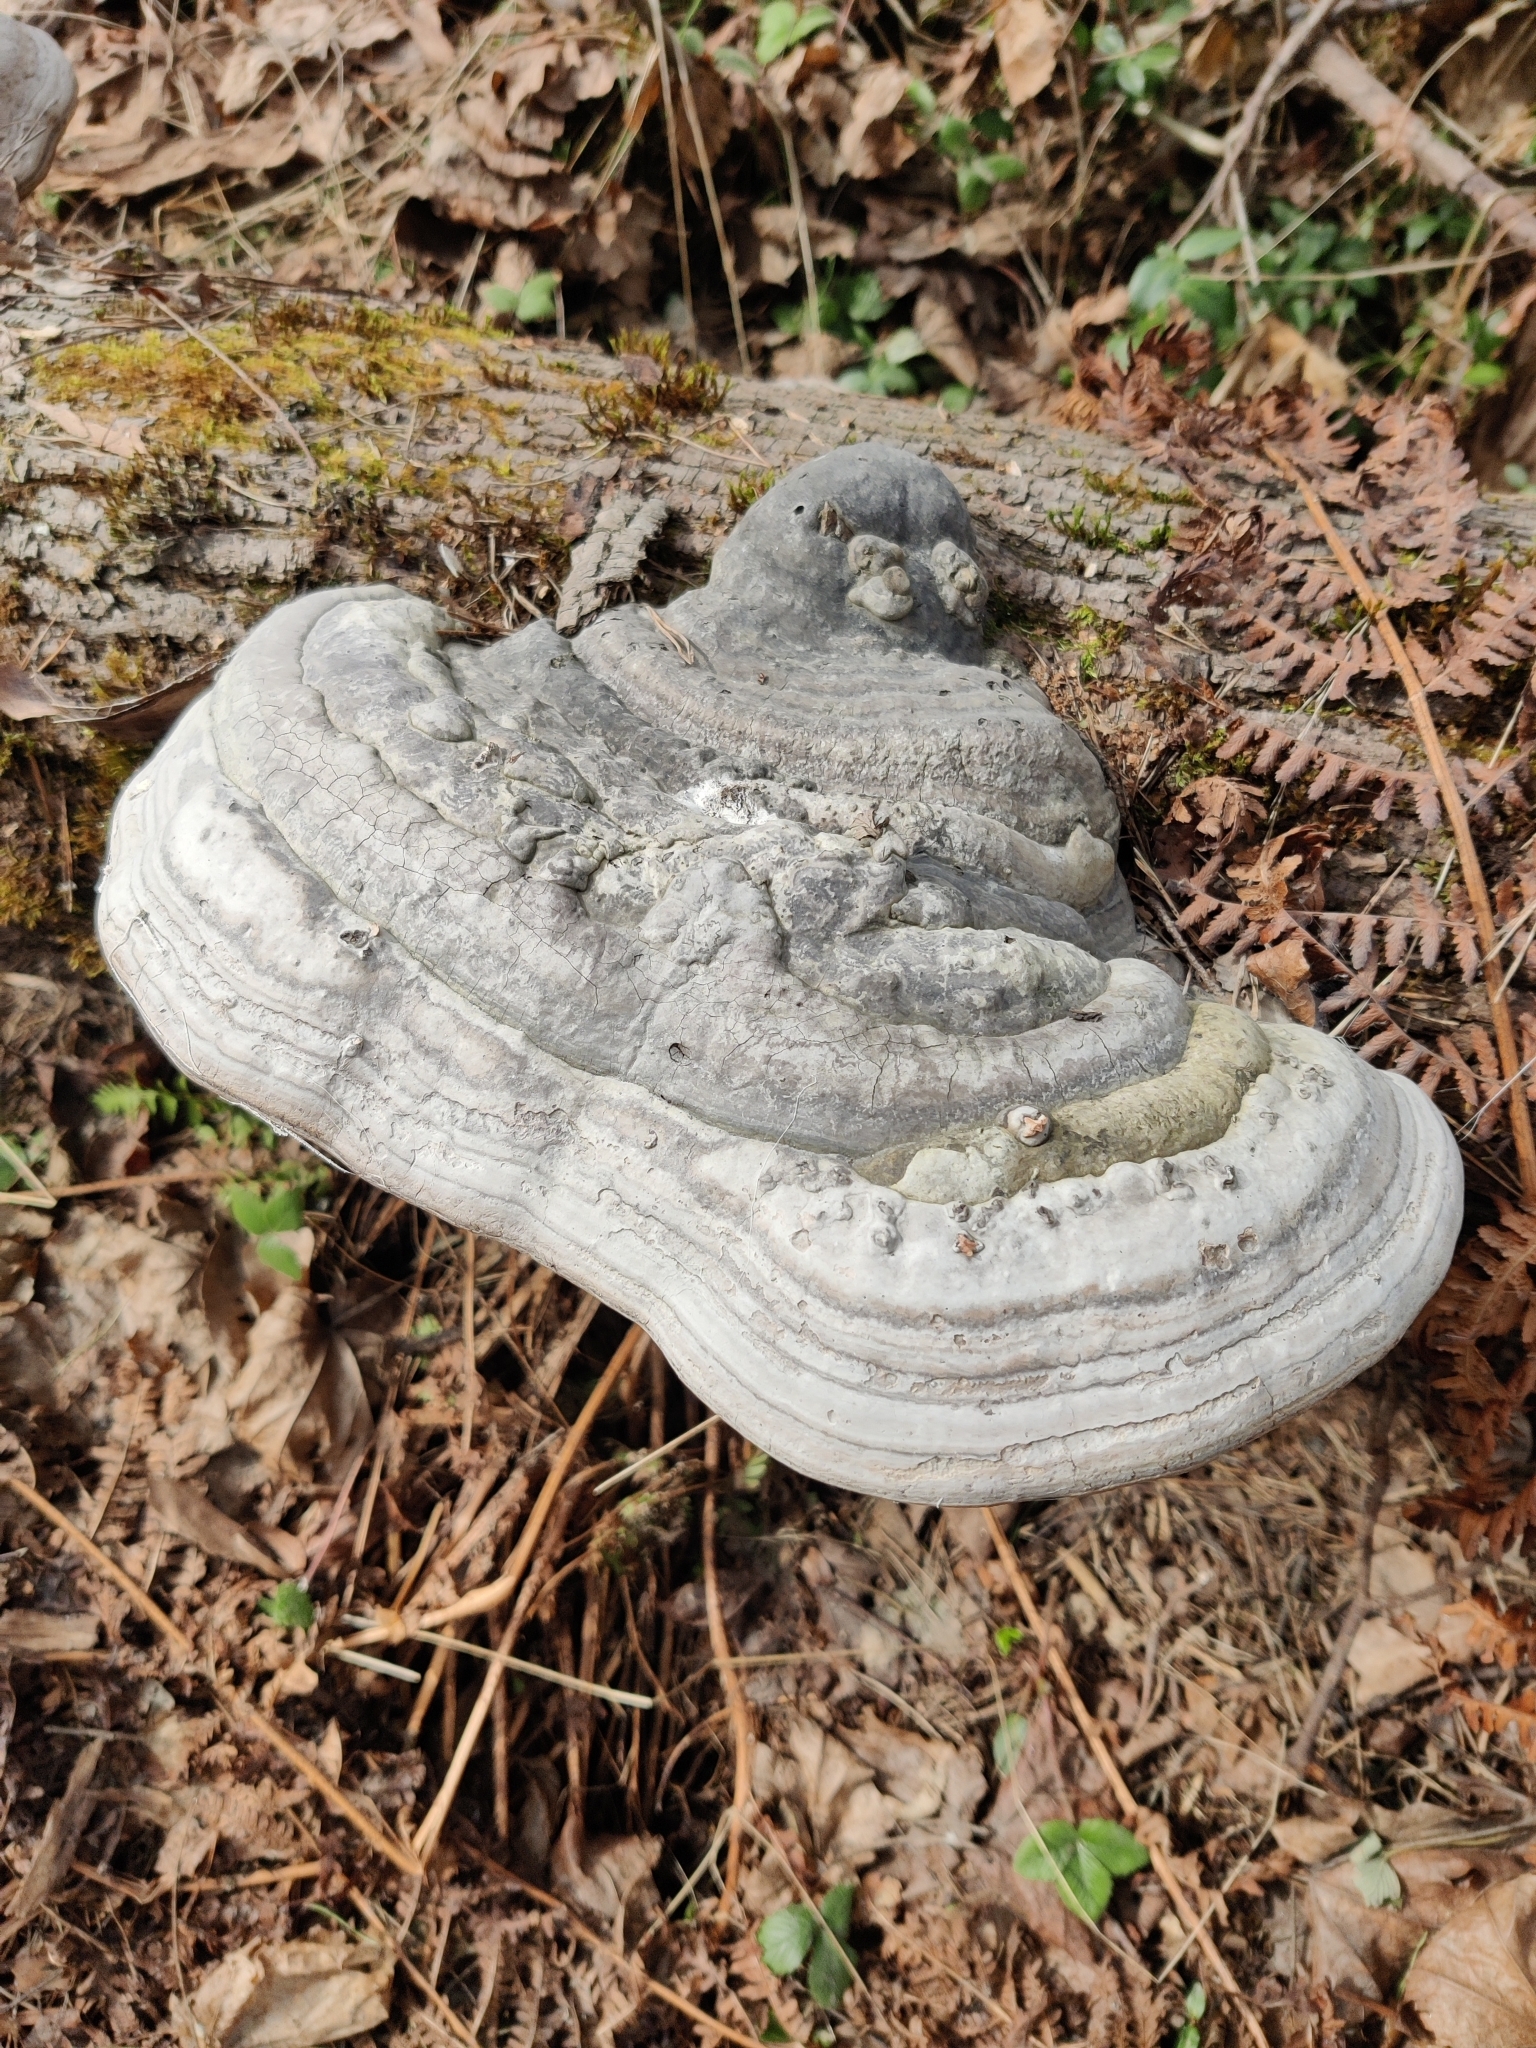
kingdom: Fungi
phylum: Basidiomycota
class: Agaricomycetes
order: Polyporales
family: Polyporaceae
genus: Fomes
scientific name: Fomes fomentarius
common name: Hoof fungus
